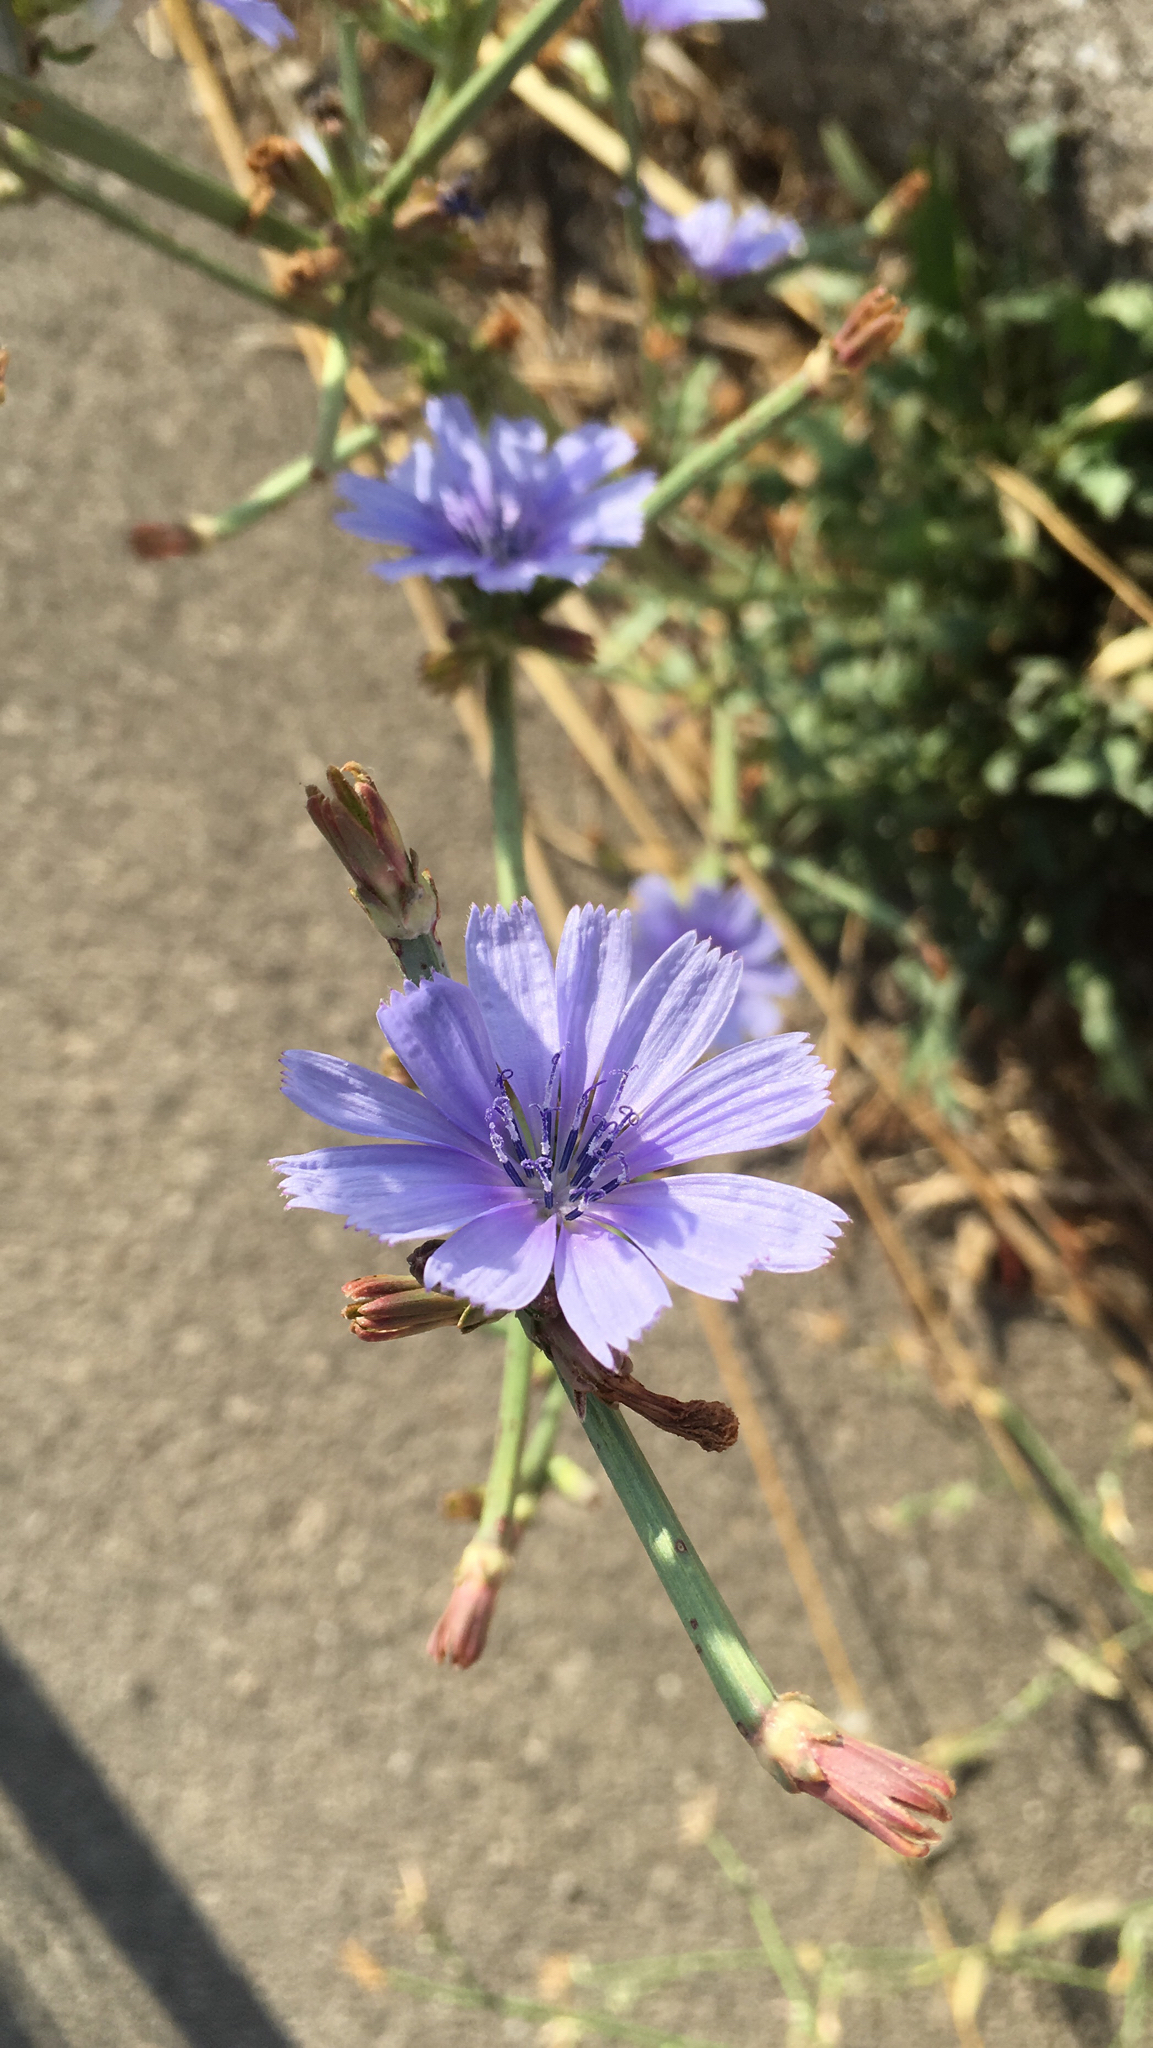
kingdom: Plantae
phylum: Tracheophyta
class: Magnoliopsida
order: Asterales
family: Asteraceae
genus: Cichorium
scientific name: Cichorium intybus
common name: Chicory
